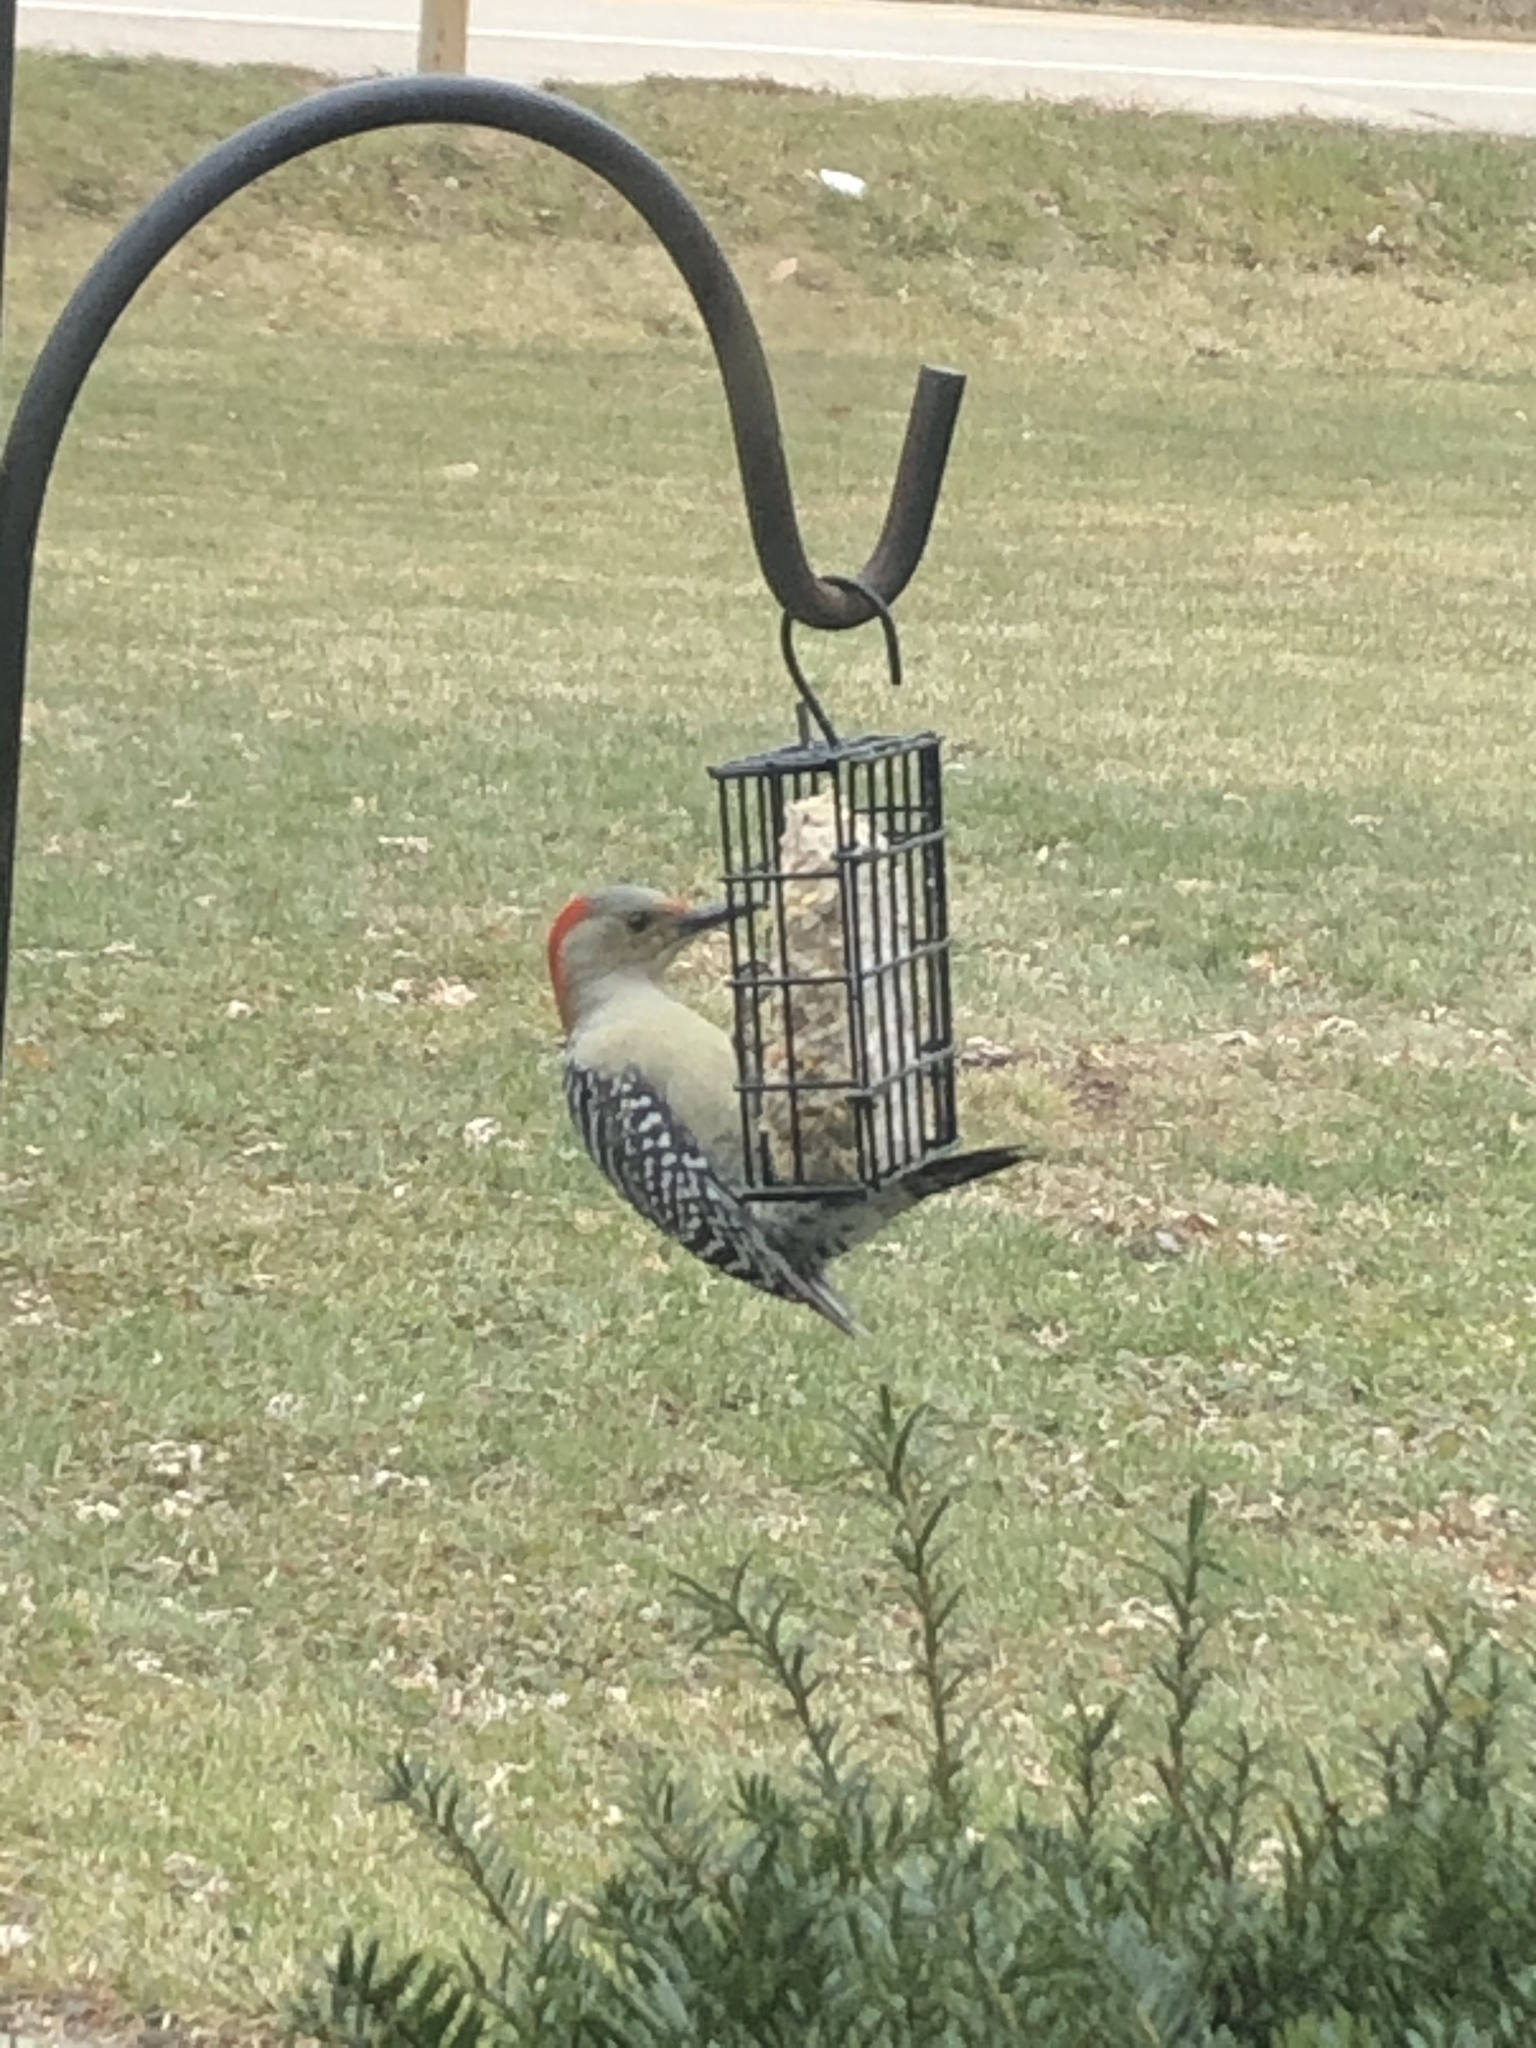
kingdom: Animalia
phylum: Chordata
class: Aves
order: Piciformes
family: Picidae
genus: Melanerpes
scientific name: Melanerpes carolinus
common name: Red-bellied woodpecker
